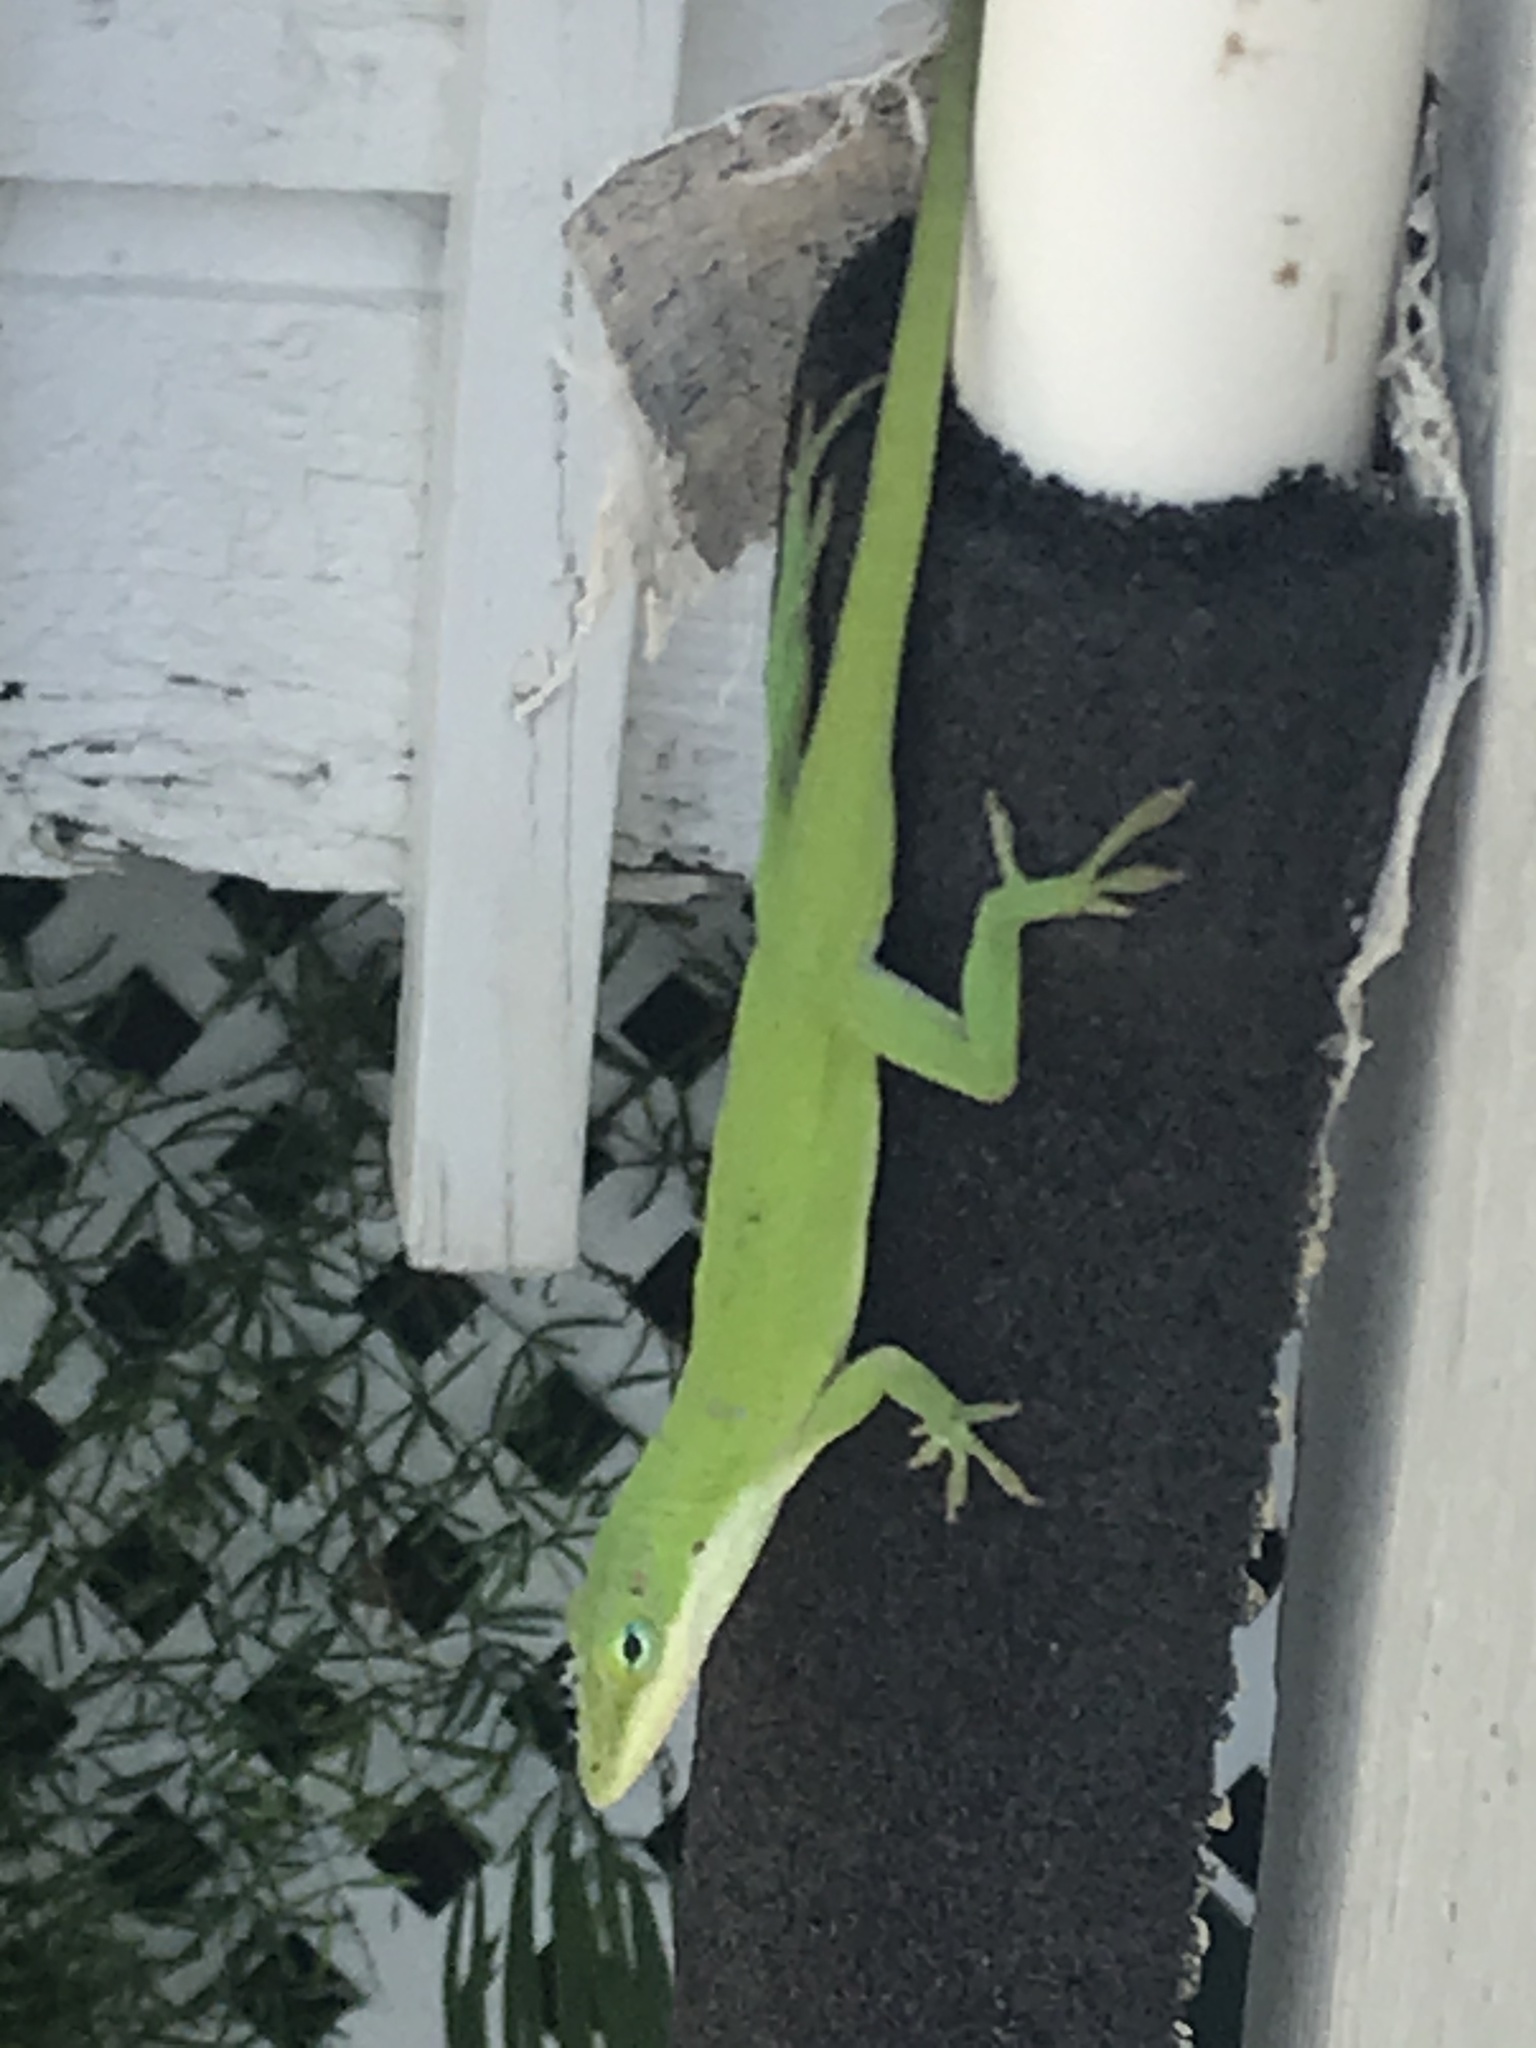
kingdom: Animalia
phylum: Chordata
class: Squamata
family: Dactyloidae
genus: Anolis
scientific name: Anolis carolinensis
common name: Green anole
